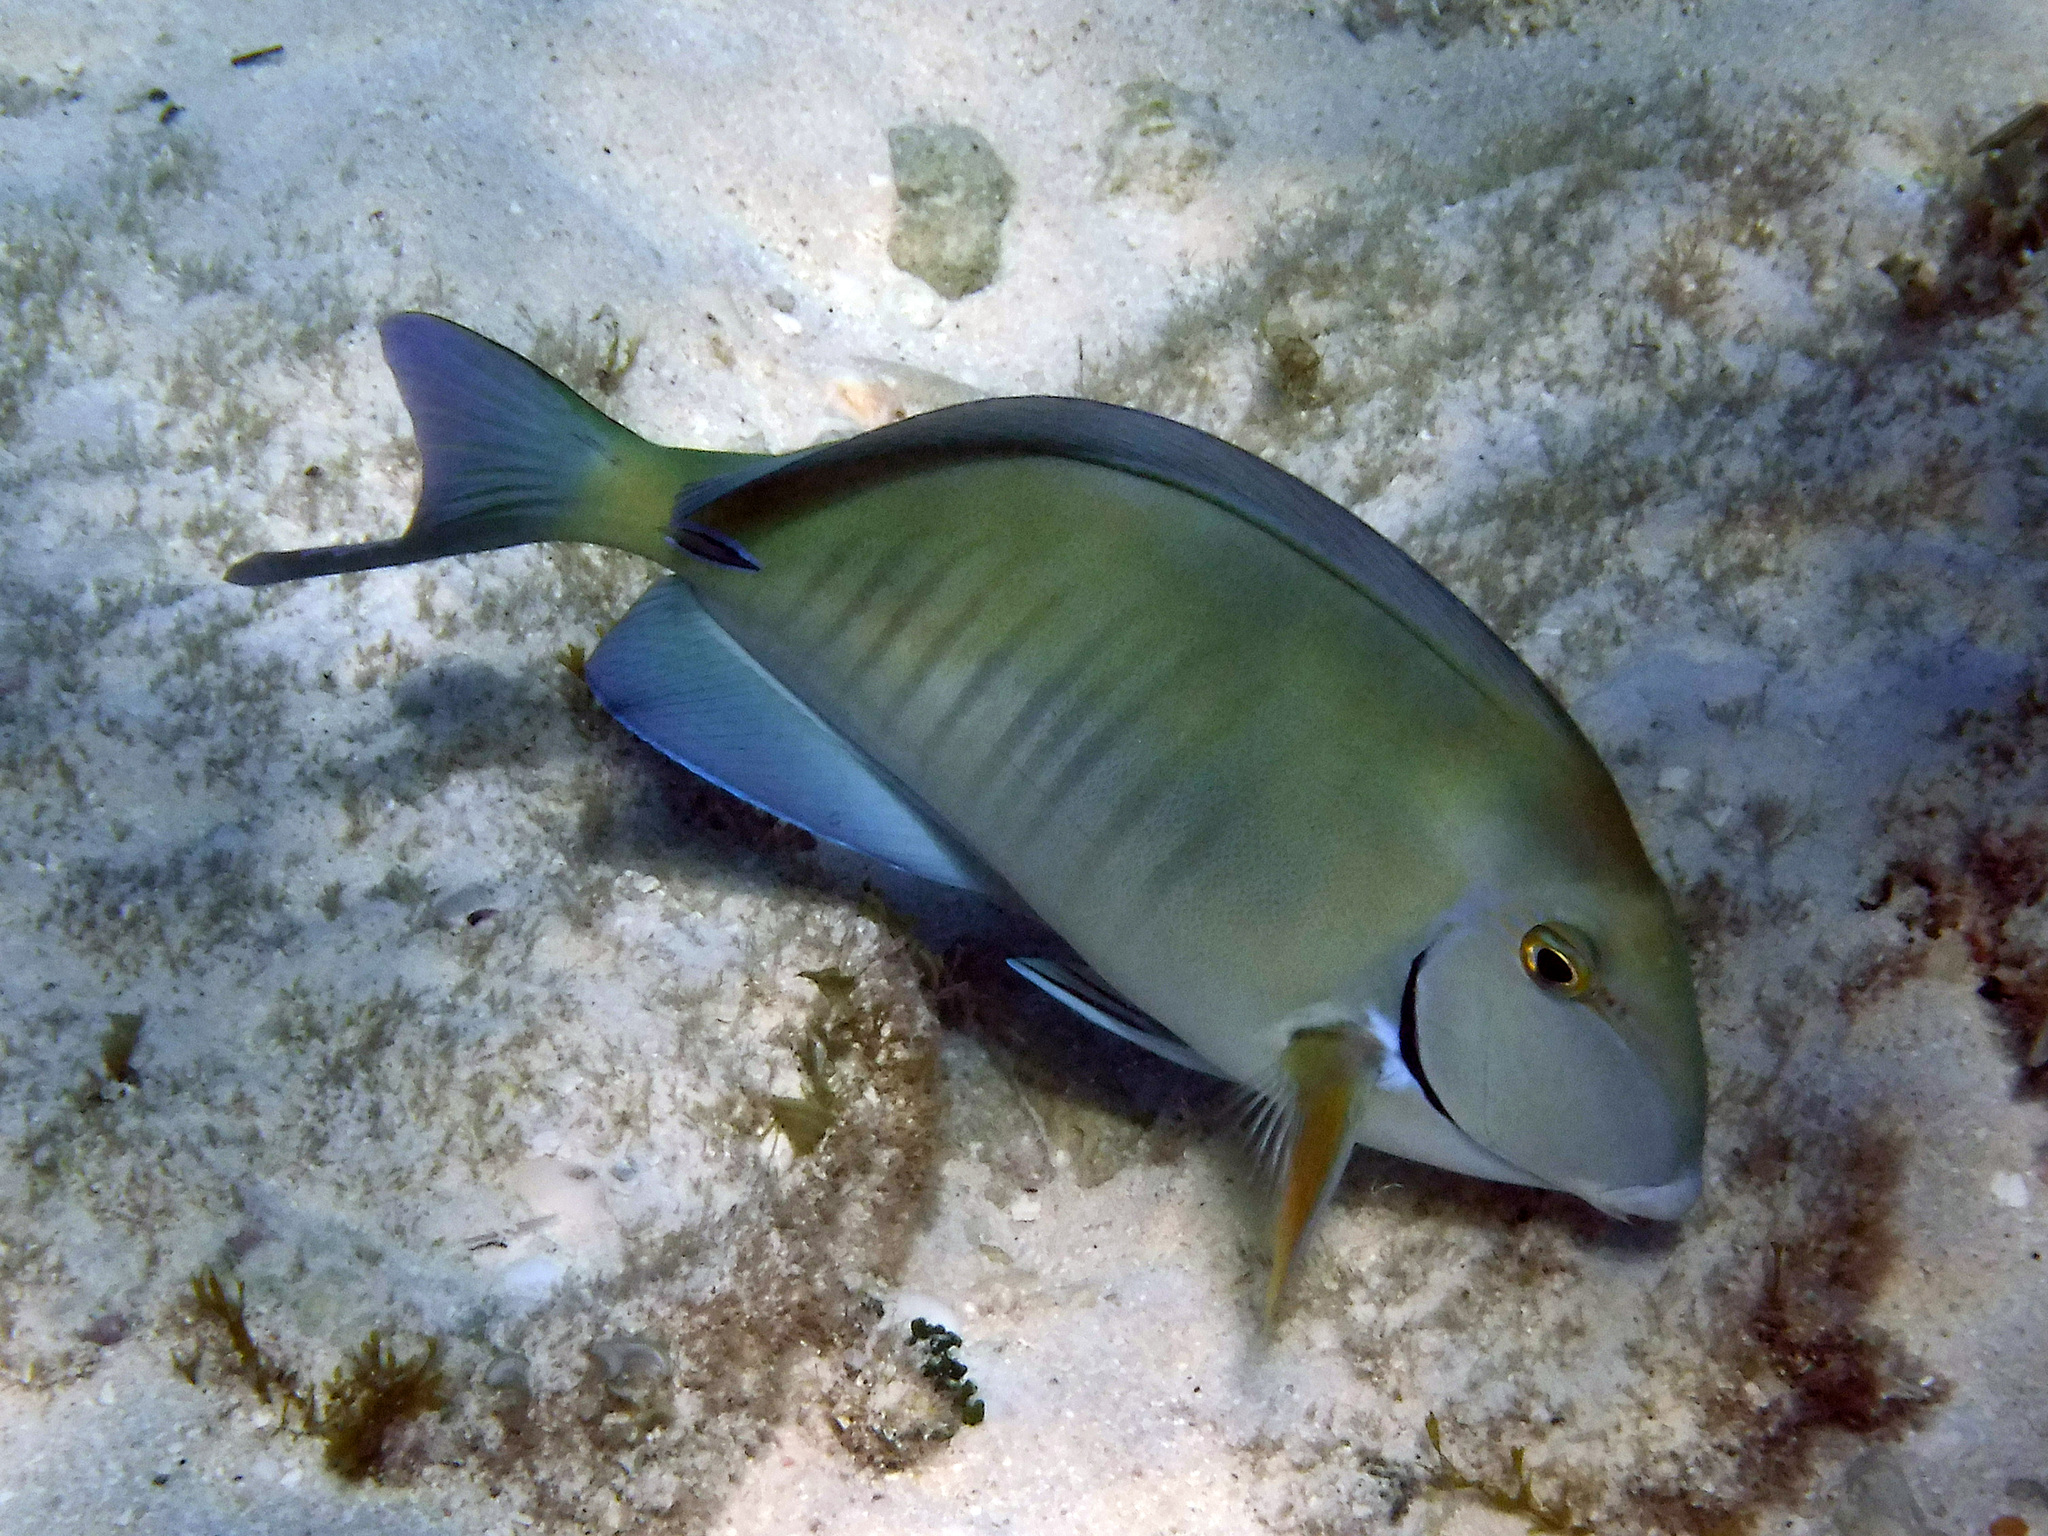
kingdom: Animalia
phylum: Chordata
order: Perciformes
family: Acanthuridae
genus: Acanthurus
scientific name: Acanthurus chirurgus
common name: Doctorfish
